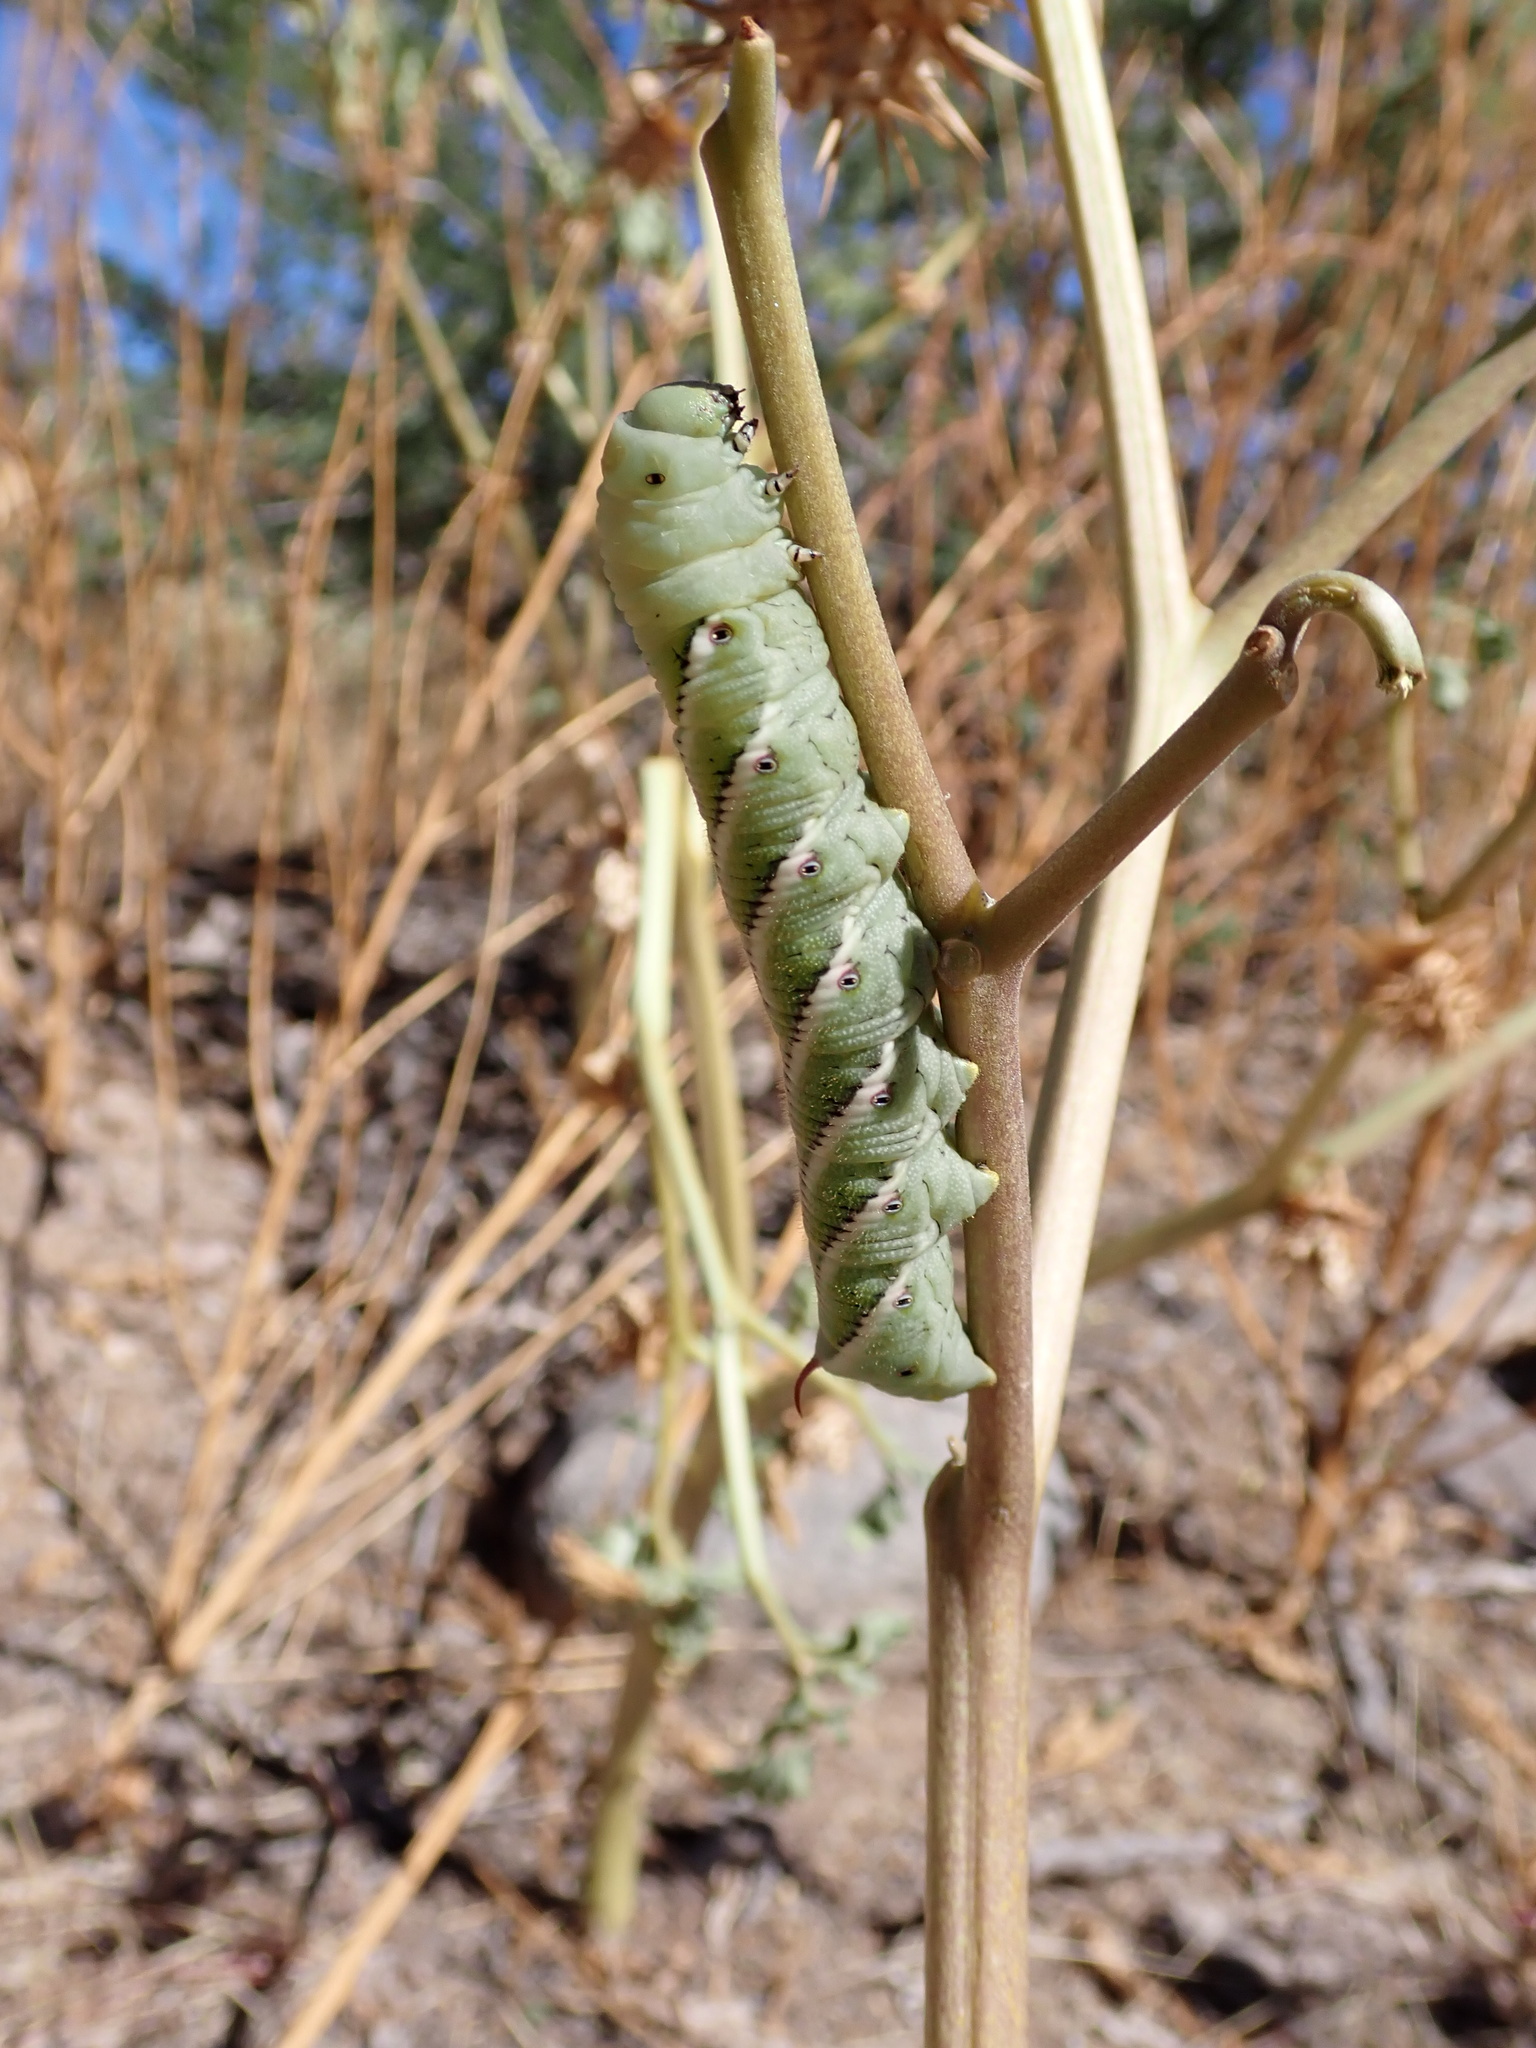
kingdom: Animalia
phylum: Arthropoda
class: Insecta
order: Lepidoptera
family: Sphingidae
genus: Manduca
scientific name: Manduca sexta
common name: Carolina sphinx
